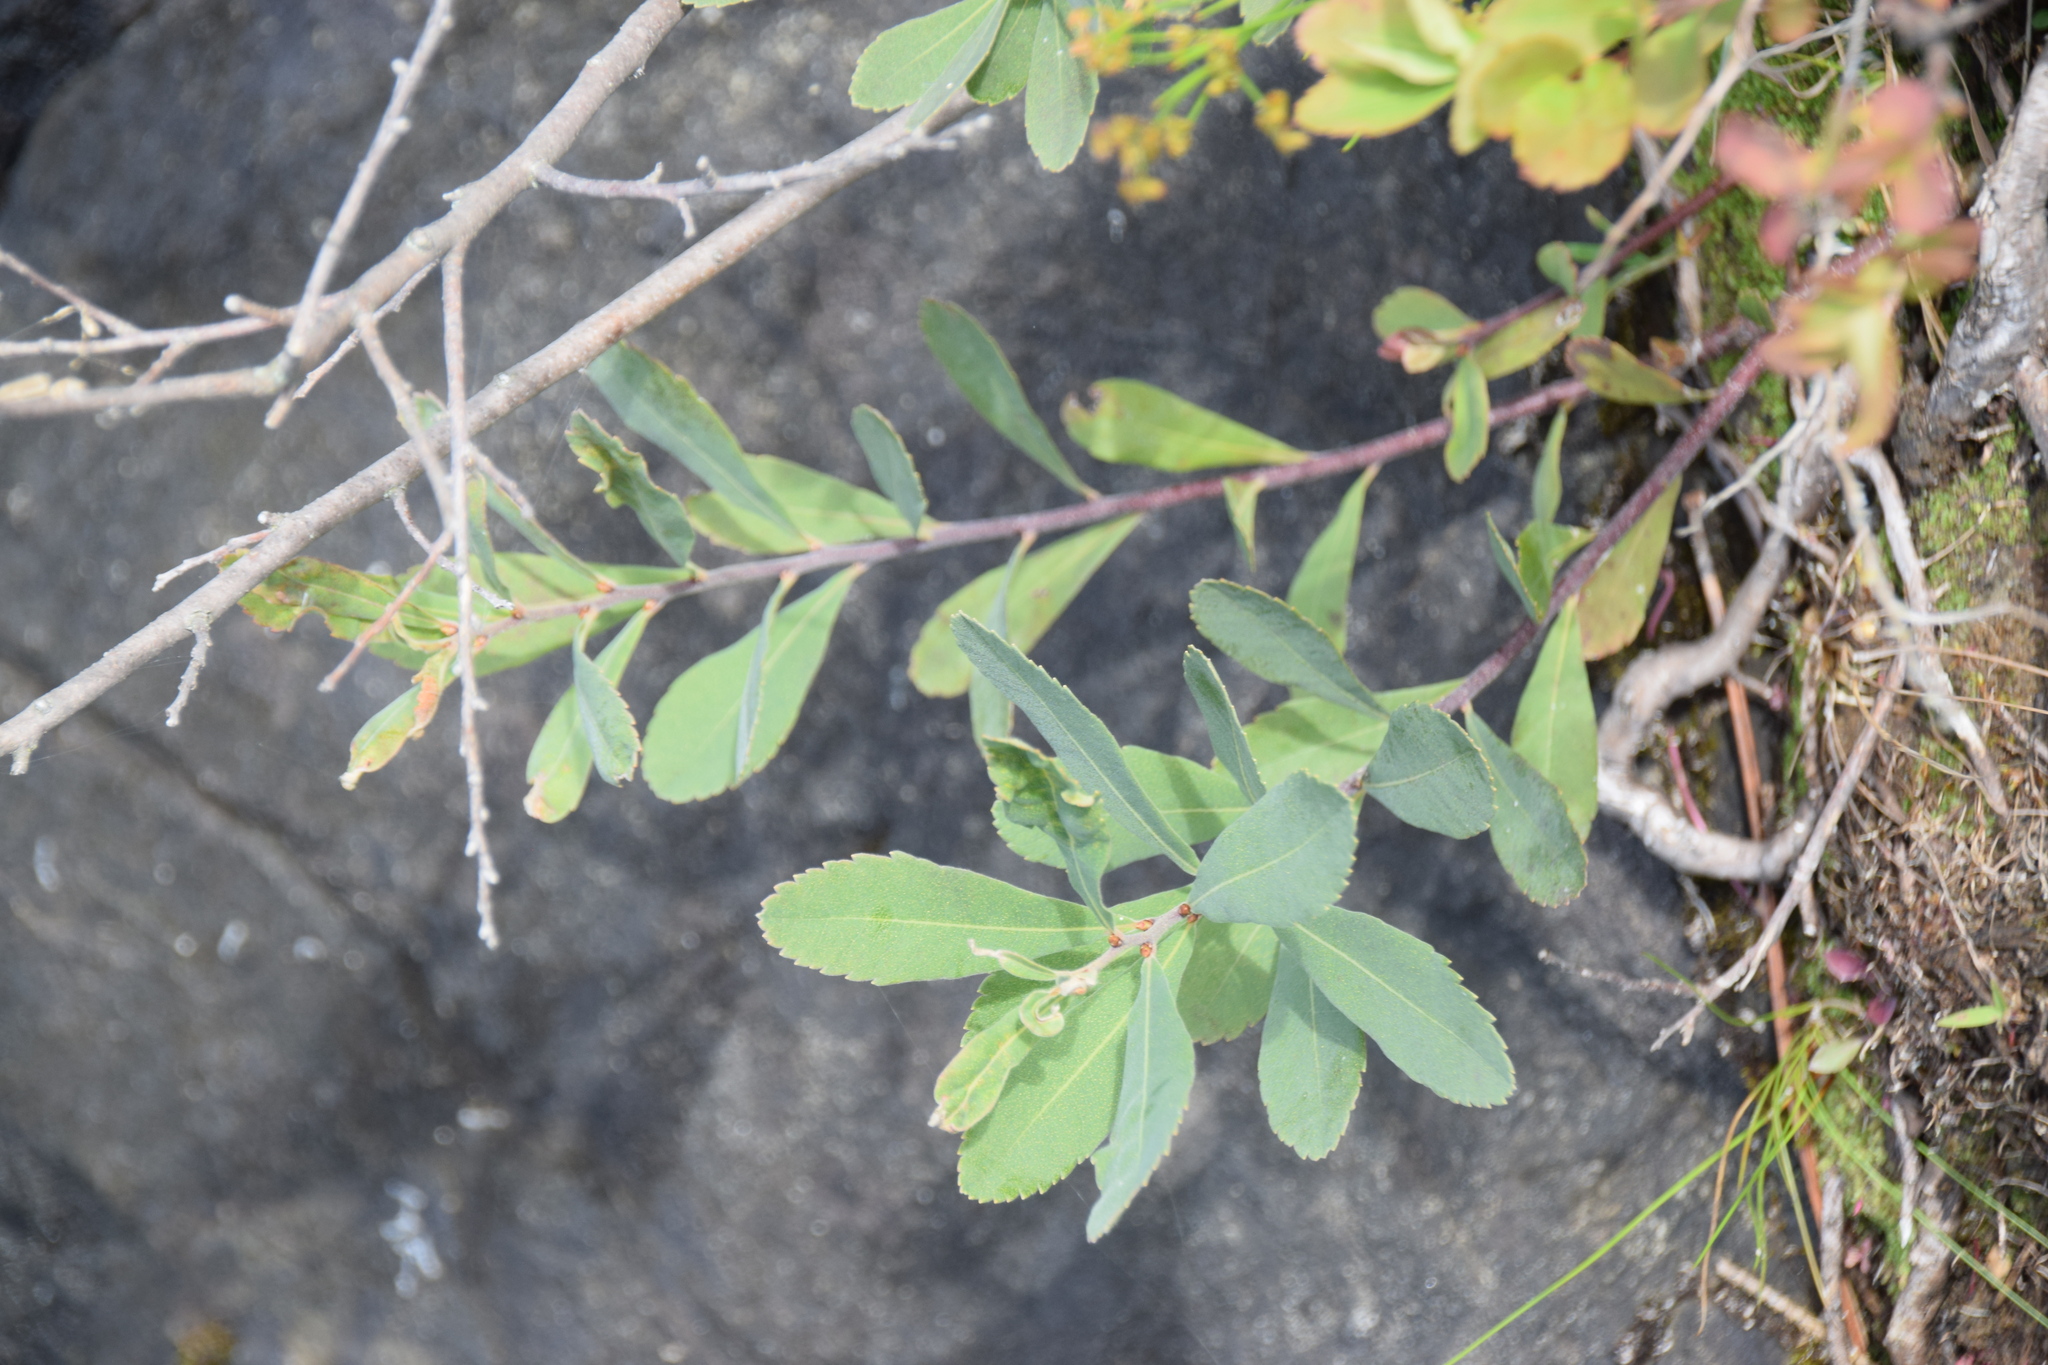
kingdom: Plantae
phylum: Tracheophyta
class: Magnoliopsida
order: Fagales
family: Myricaceae
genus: Myrica
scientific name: Myrica gale
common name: Sweet gale
